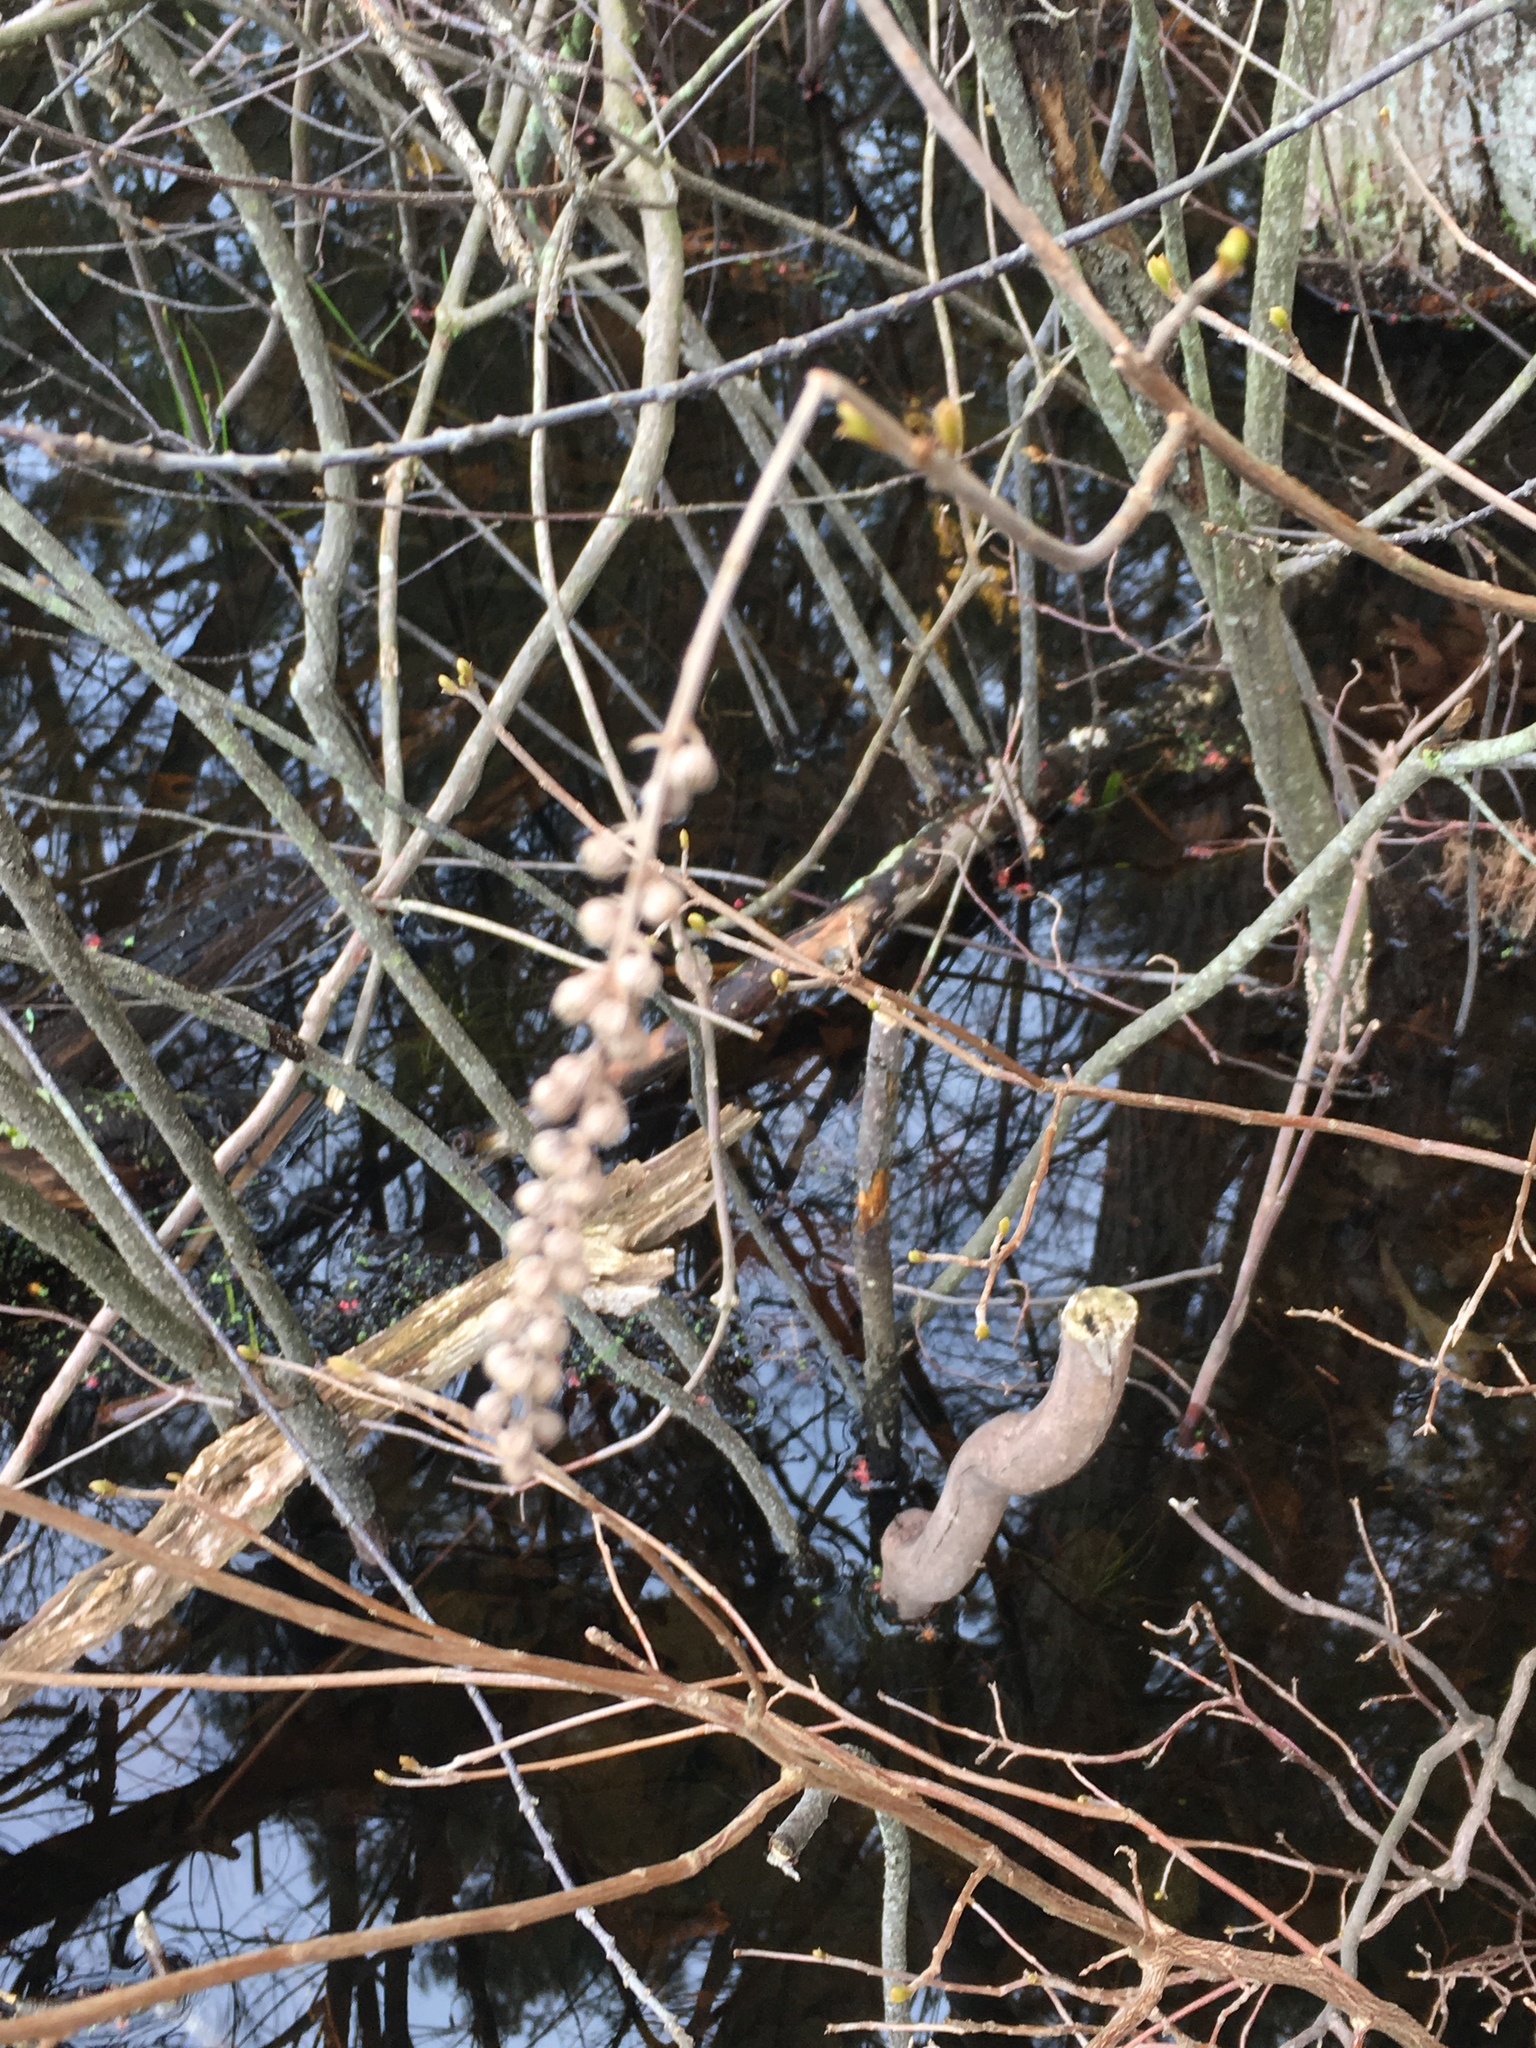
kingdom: Plantae
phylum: Tracheophyta
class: Magnoliopsida
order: Ericales
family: Clethraceae
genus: Clethra
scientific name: Clethra alnifolia
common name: Sweet pepperbush
